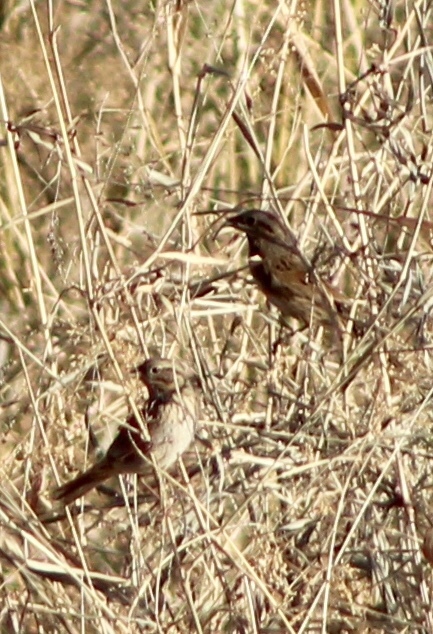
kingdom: Animalia
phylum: Chordata
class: Aves
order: Passeriformes
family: Passerellidae
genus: Melospiza
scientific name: Melospiza melodia
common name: Song sparrow
